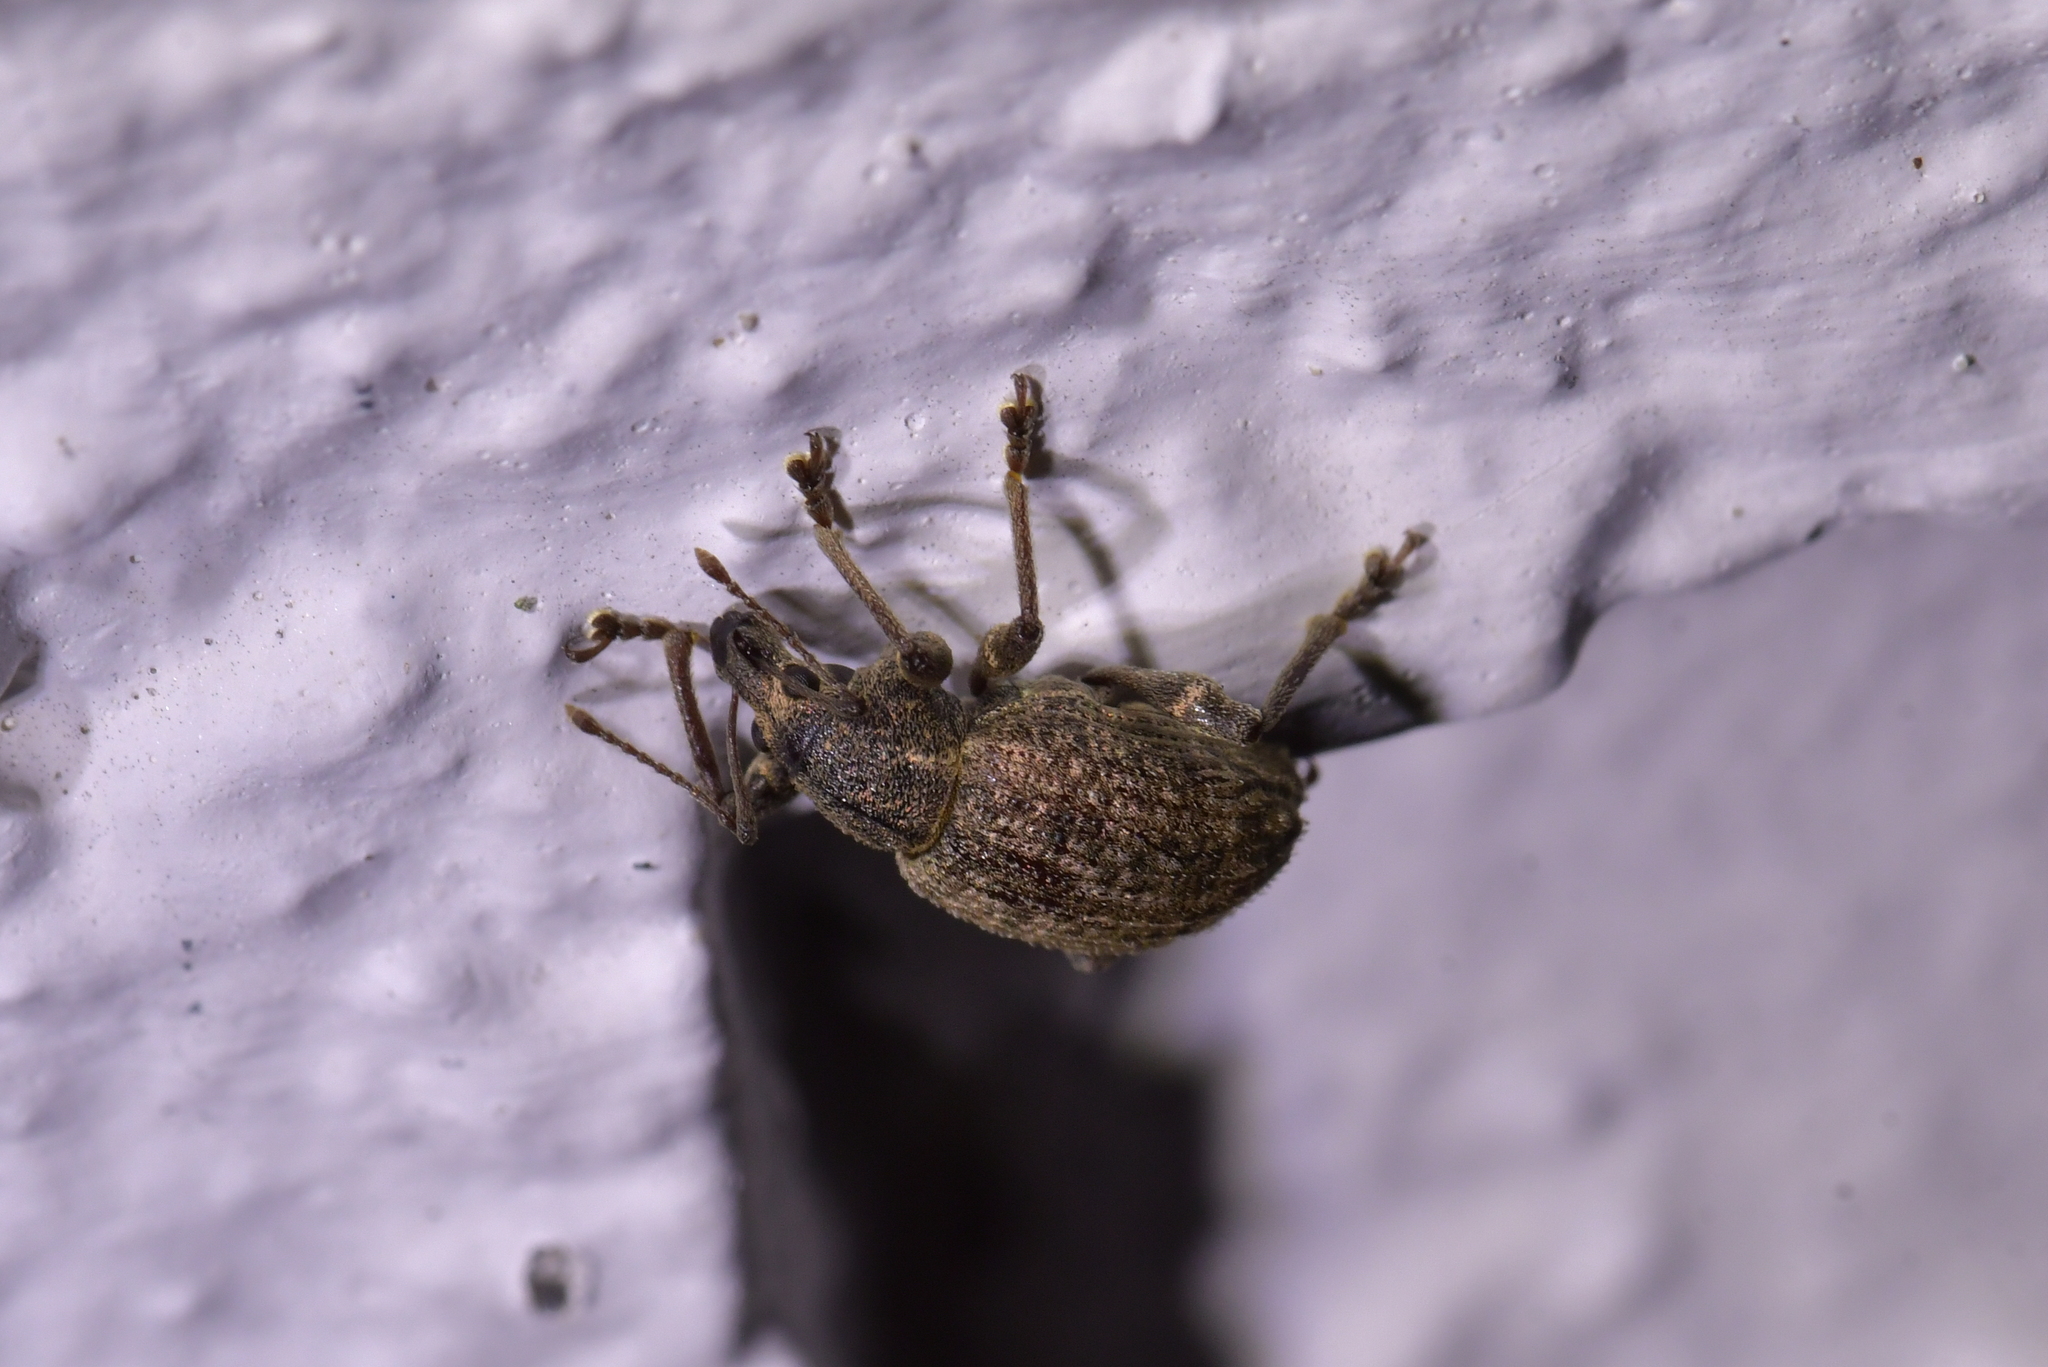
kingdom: Animalia
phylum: Arthropoda
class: Insecta
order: Coleoptera
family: Curculionidae
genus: Phlyctinus
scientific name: Phlyctinus callosus
